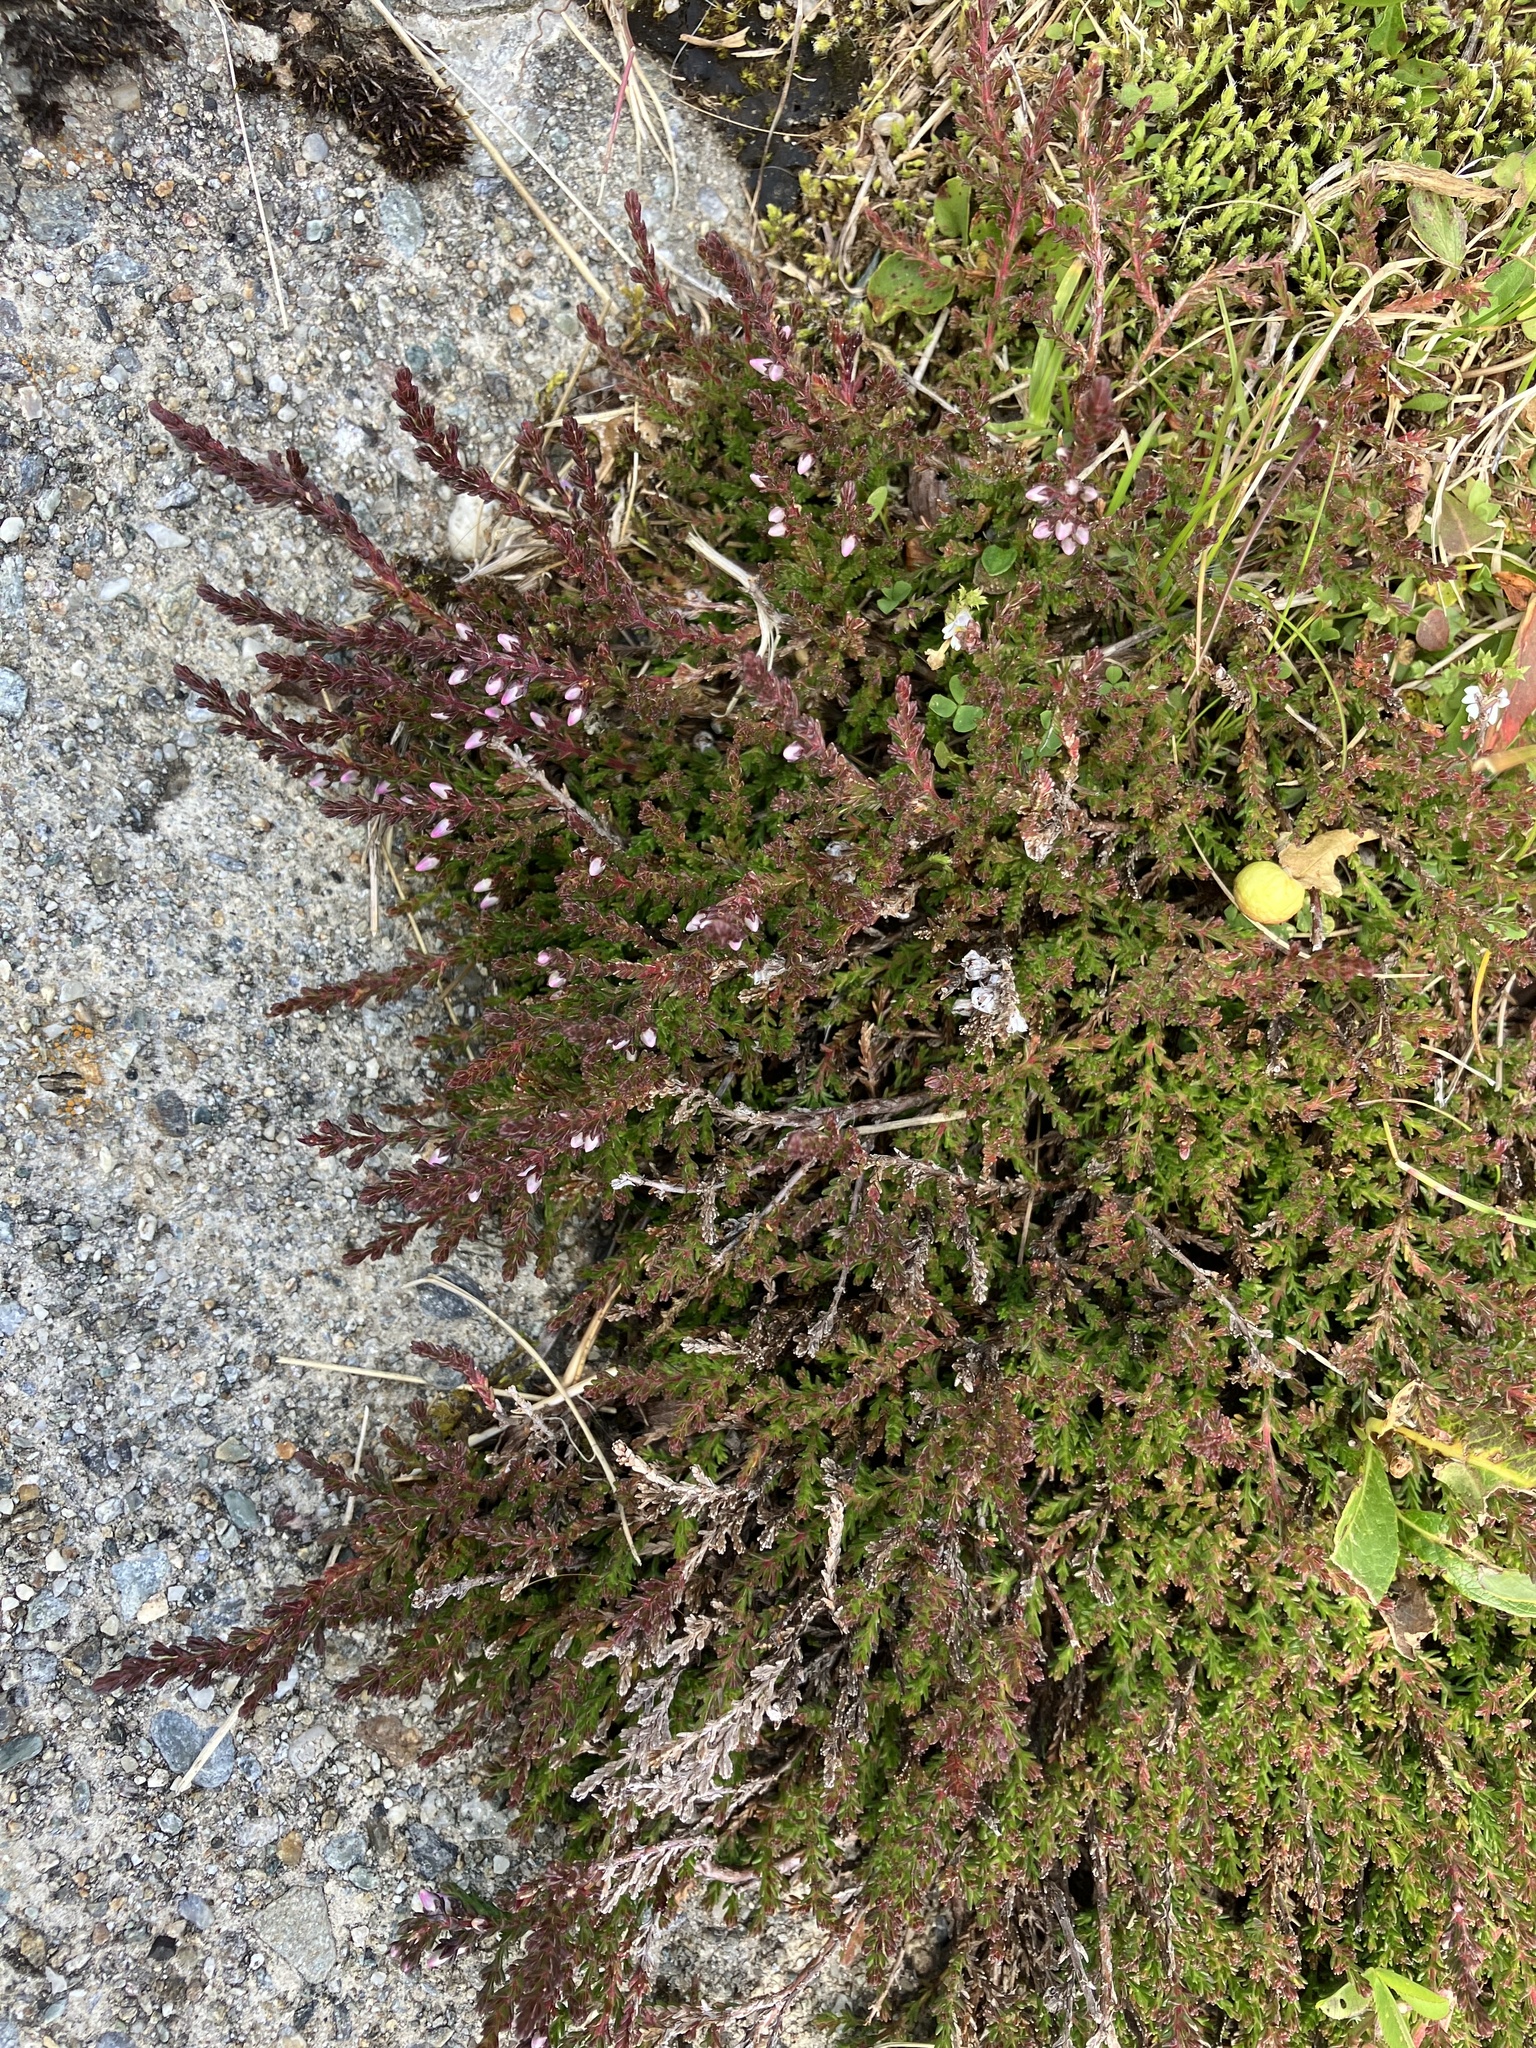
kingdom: Plantae
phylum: Tracheophyta
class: Magnoliopsida
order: Ericales
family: Ericaceae
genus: Calluna
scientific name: Calluna vulgaris
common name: Heather
